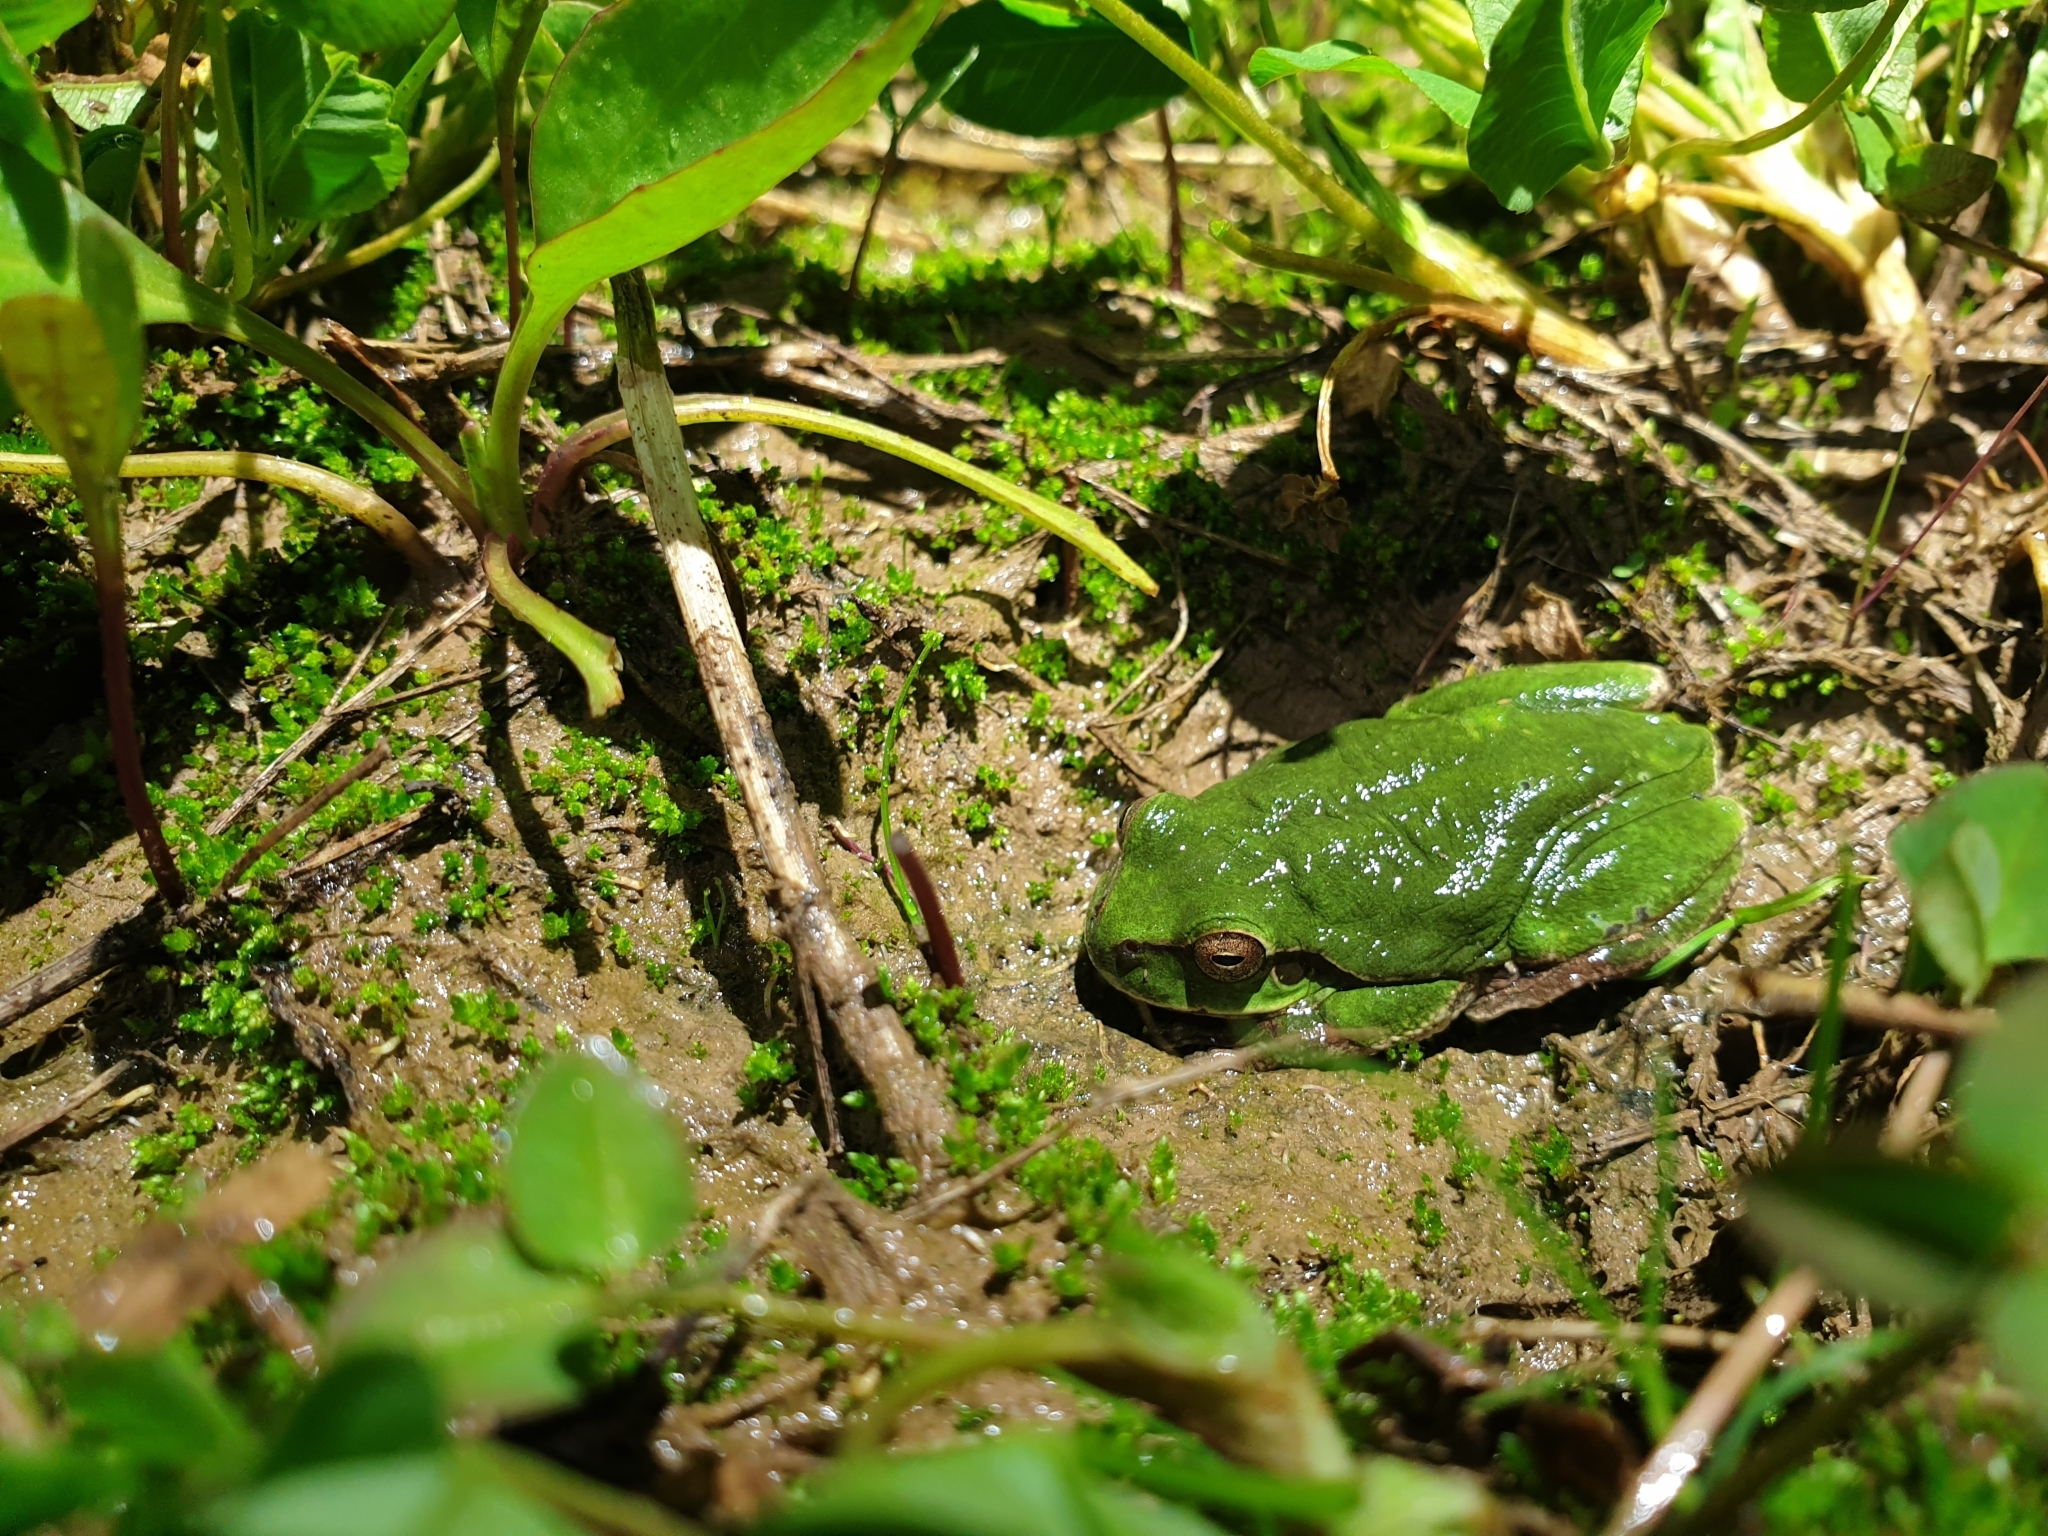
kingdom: Animalia
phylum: Chordata
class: Amphibia
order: Anura
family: Hylidae
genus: Hyla
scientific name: Hyla arborea
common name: Common tree frog
